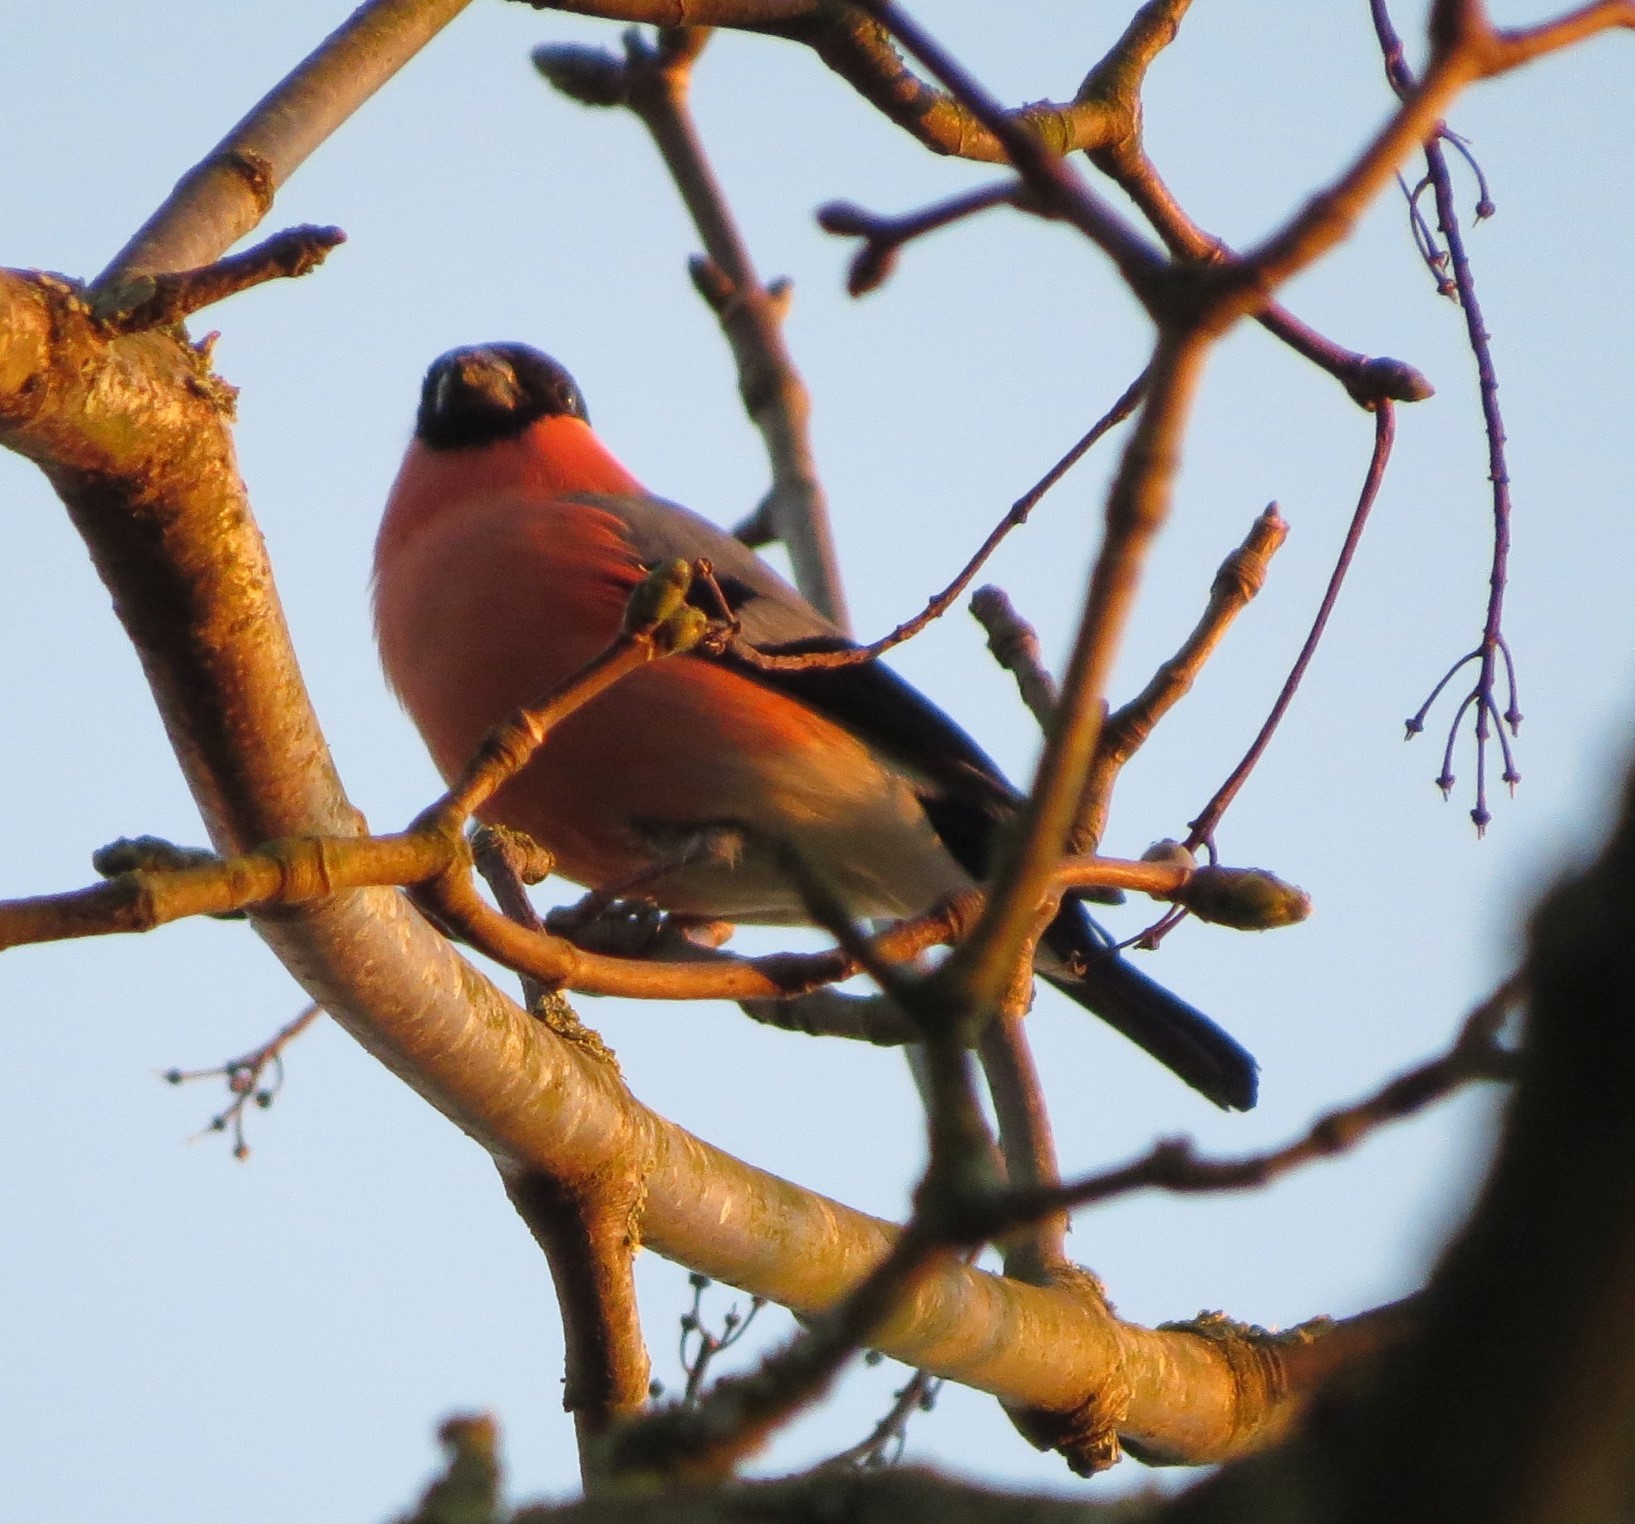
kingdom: Animalia
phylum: Chordata
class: Aves
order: Passeriformes
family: Fringillidae
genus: Pyrrhula
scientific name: Pyrrhula pyrrhula
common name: Eurasian bullfinch
